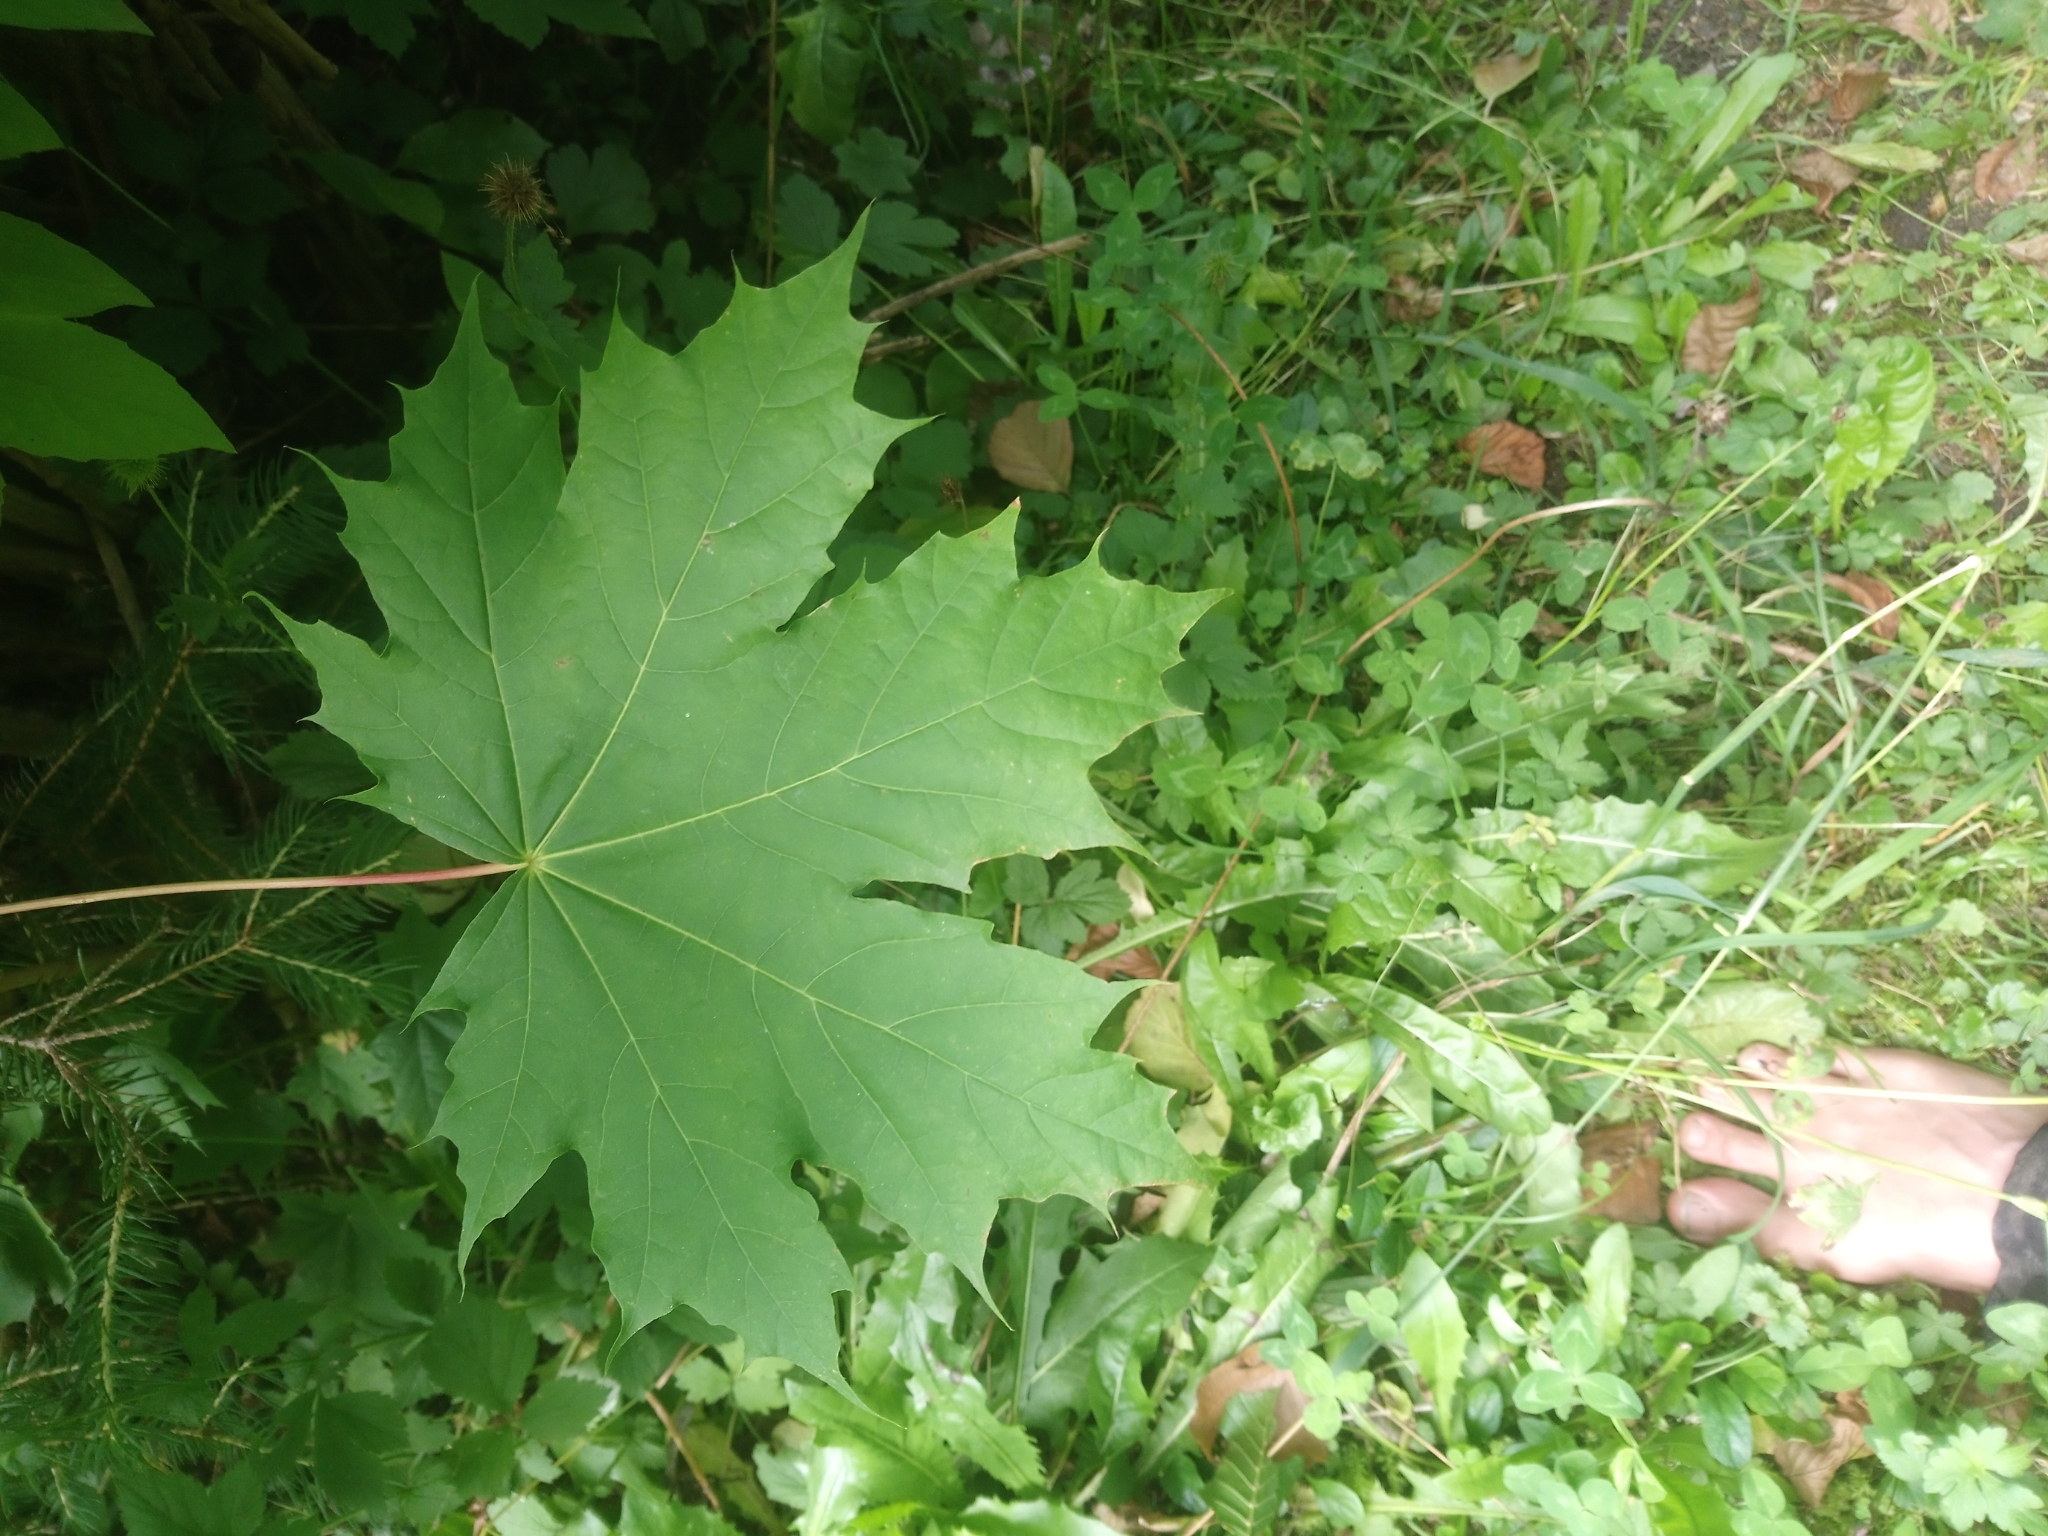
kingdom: Plantae
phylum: Tracheophyta
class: Magnoliopsida
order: Sapindales
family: Sapindaceae
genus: Acer
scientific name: Acer platanoides
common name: Norway maple
